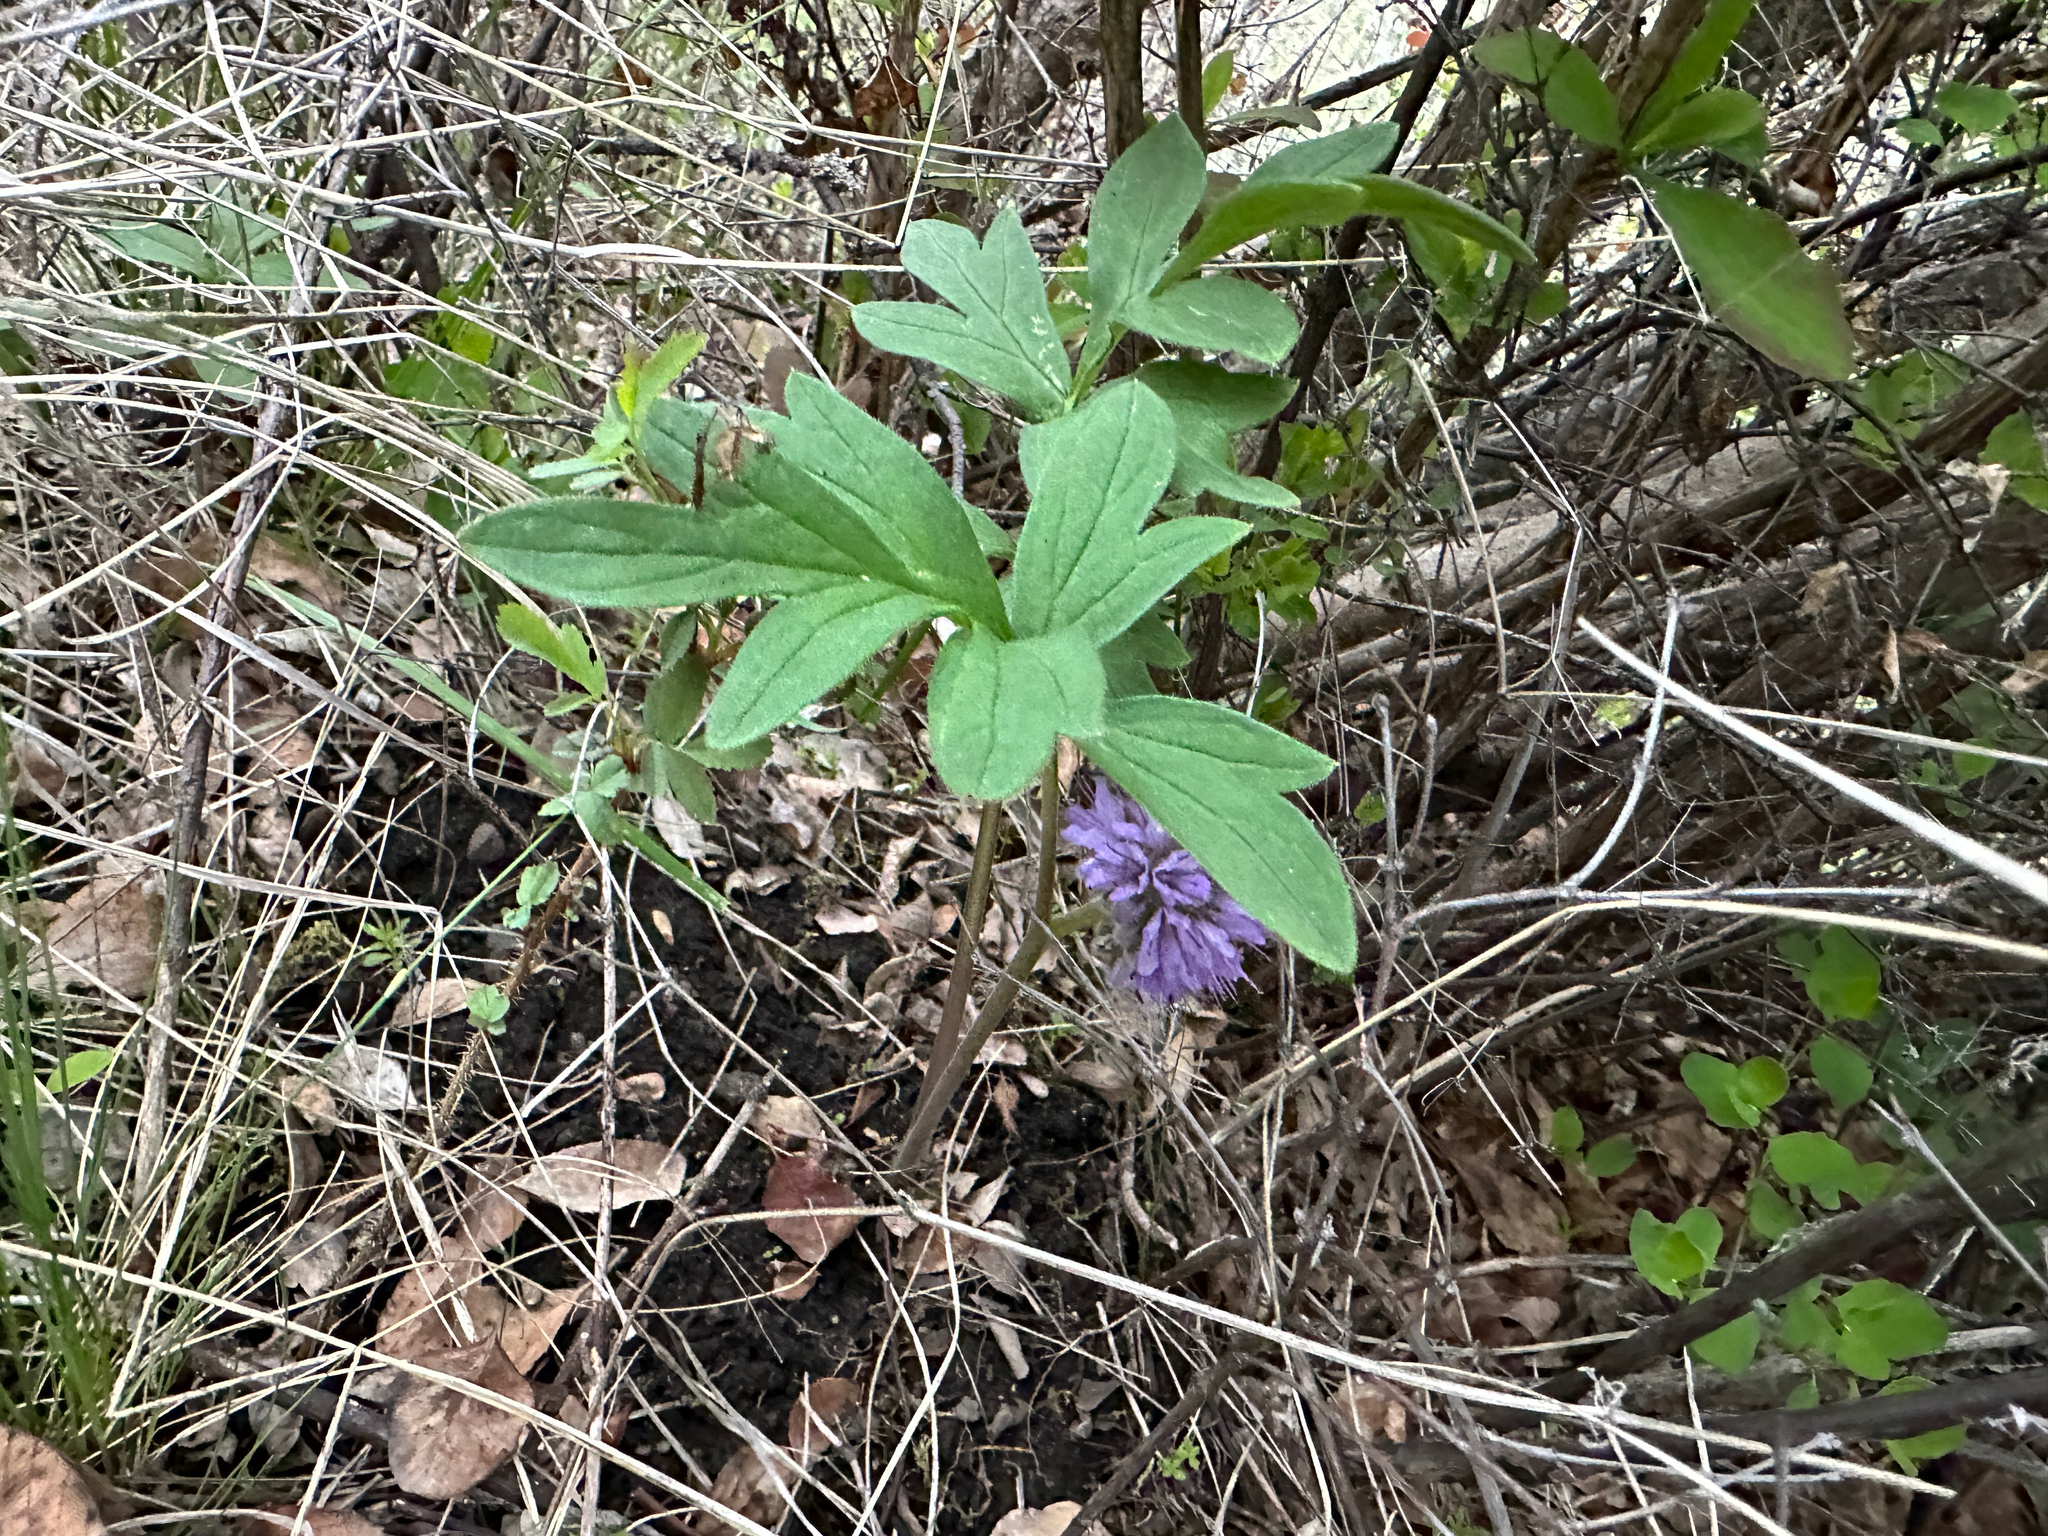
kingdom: Plantae
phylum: Tracheophyta
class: Magnoliopsida
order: Boraginales
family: Hydrophyllaceae
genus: Hydrophyllum
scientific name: Hydrophyllum capitatum
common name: Woollen-breeches
